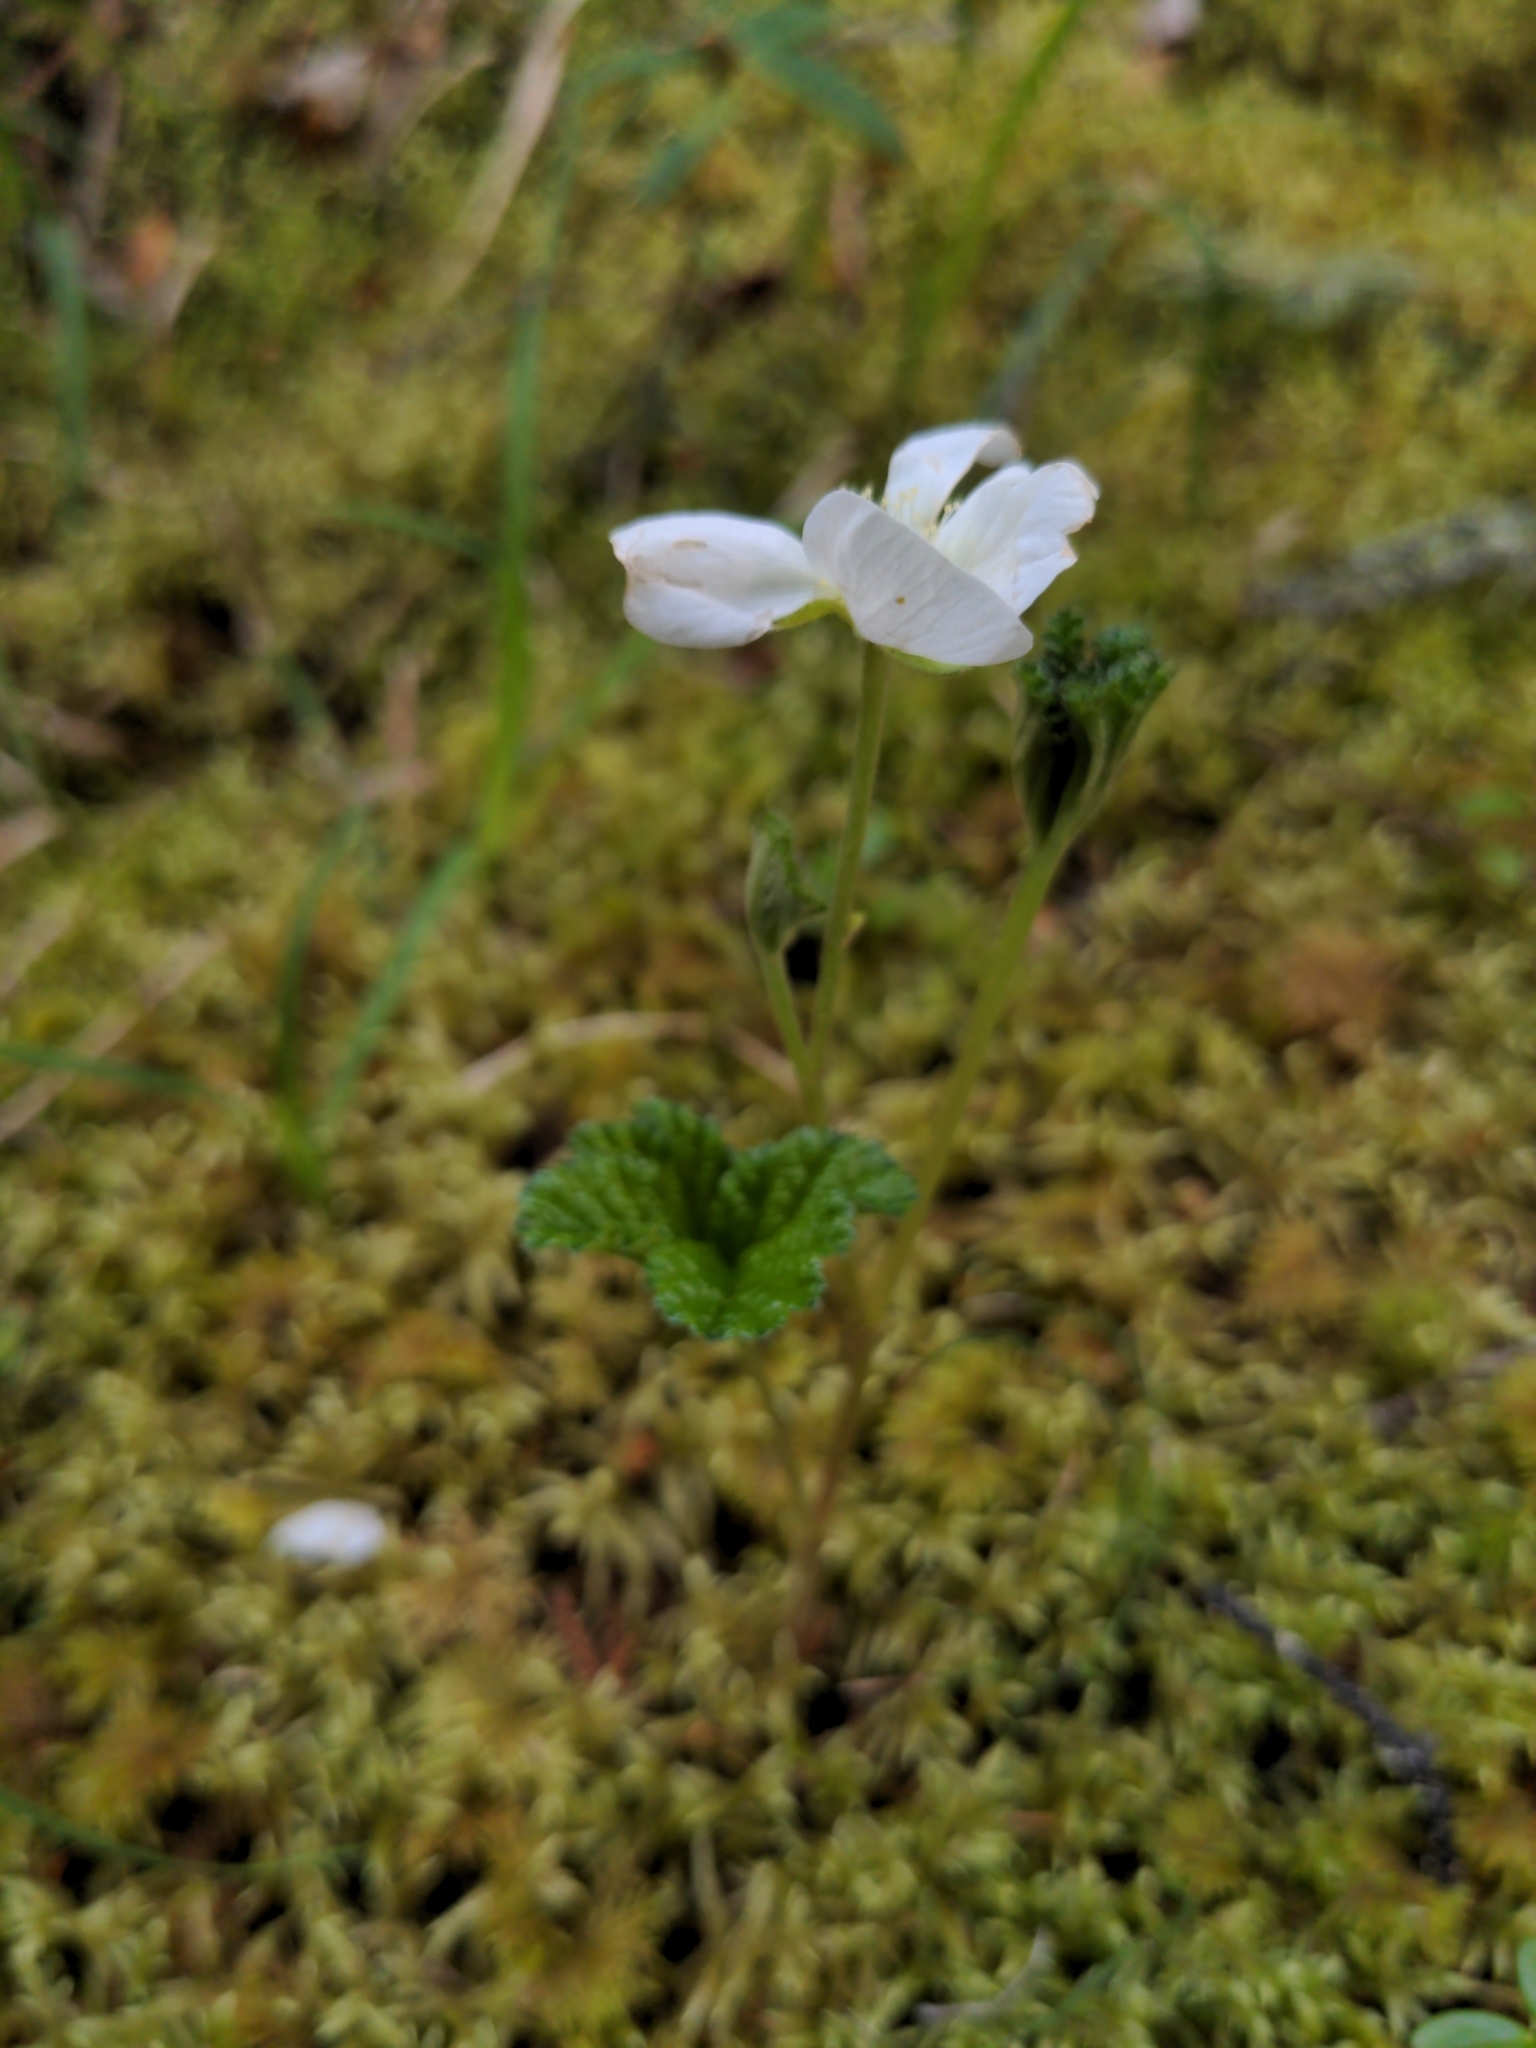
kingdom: Plantae
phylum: Tracheophyta
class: Magnoliopsida
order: Rosales
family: Rosaceae
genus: Rubus
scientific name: Rubus chamaemorus
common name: Cloudberry
